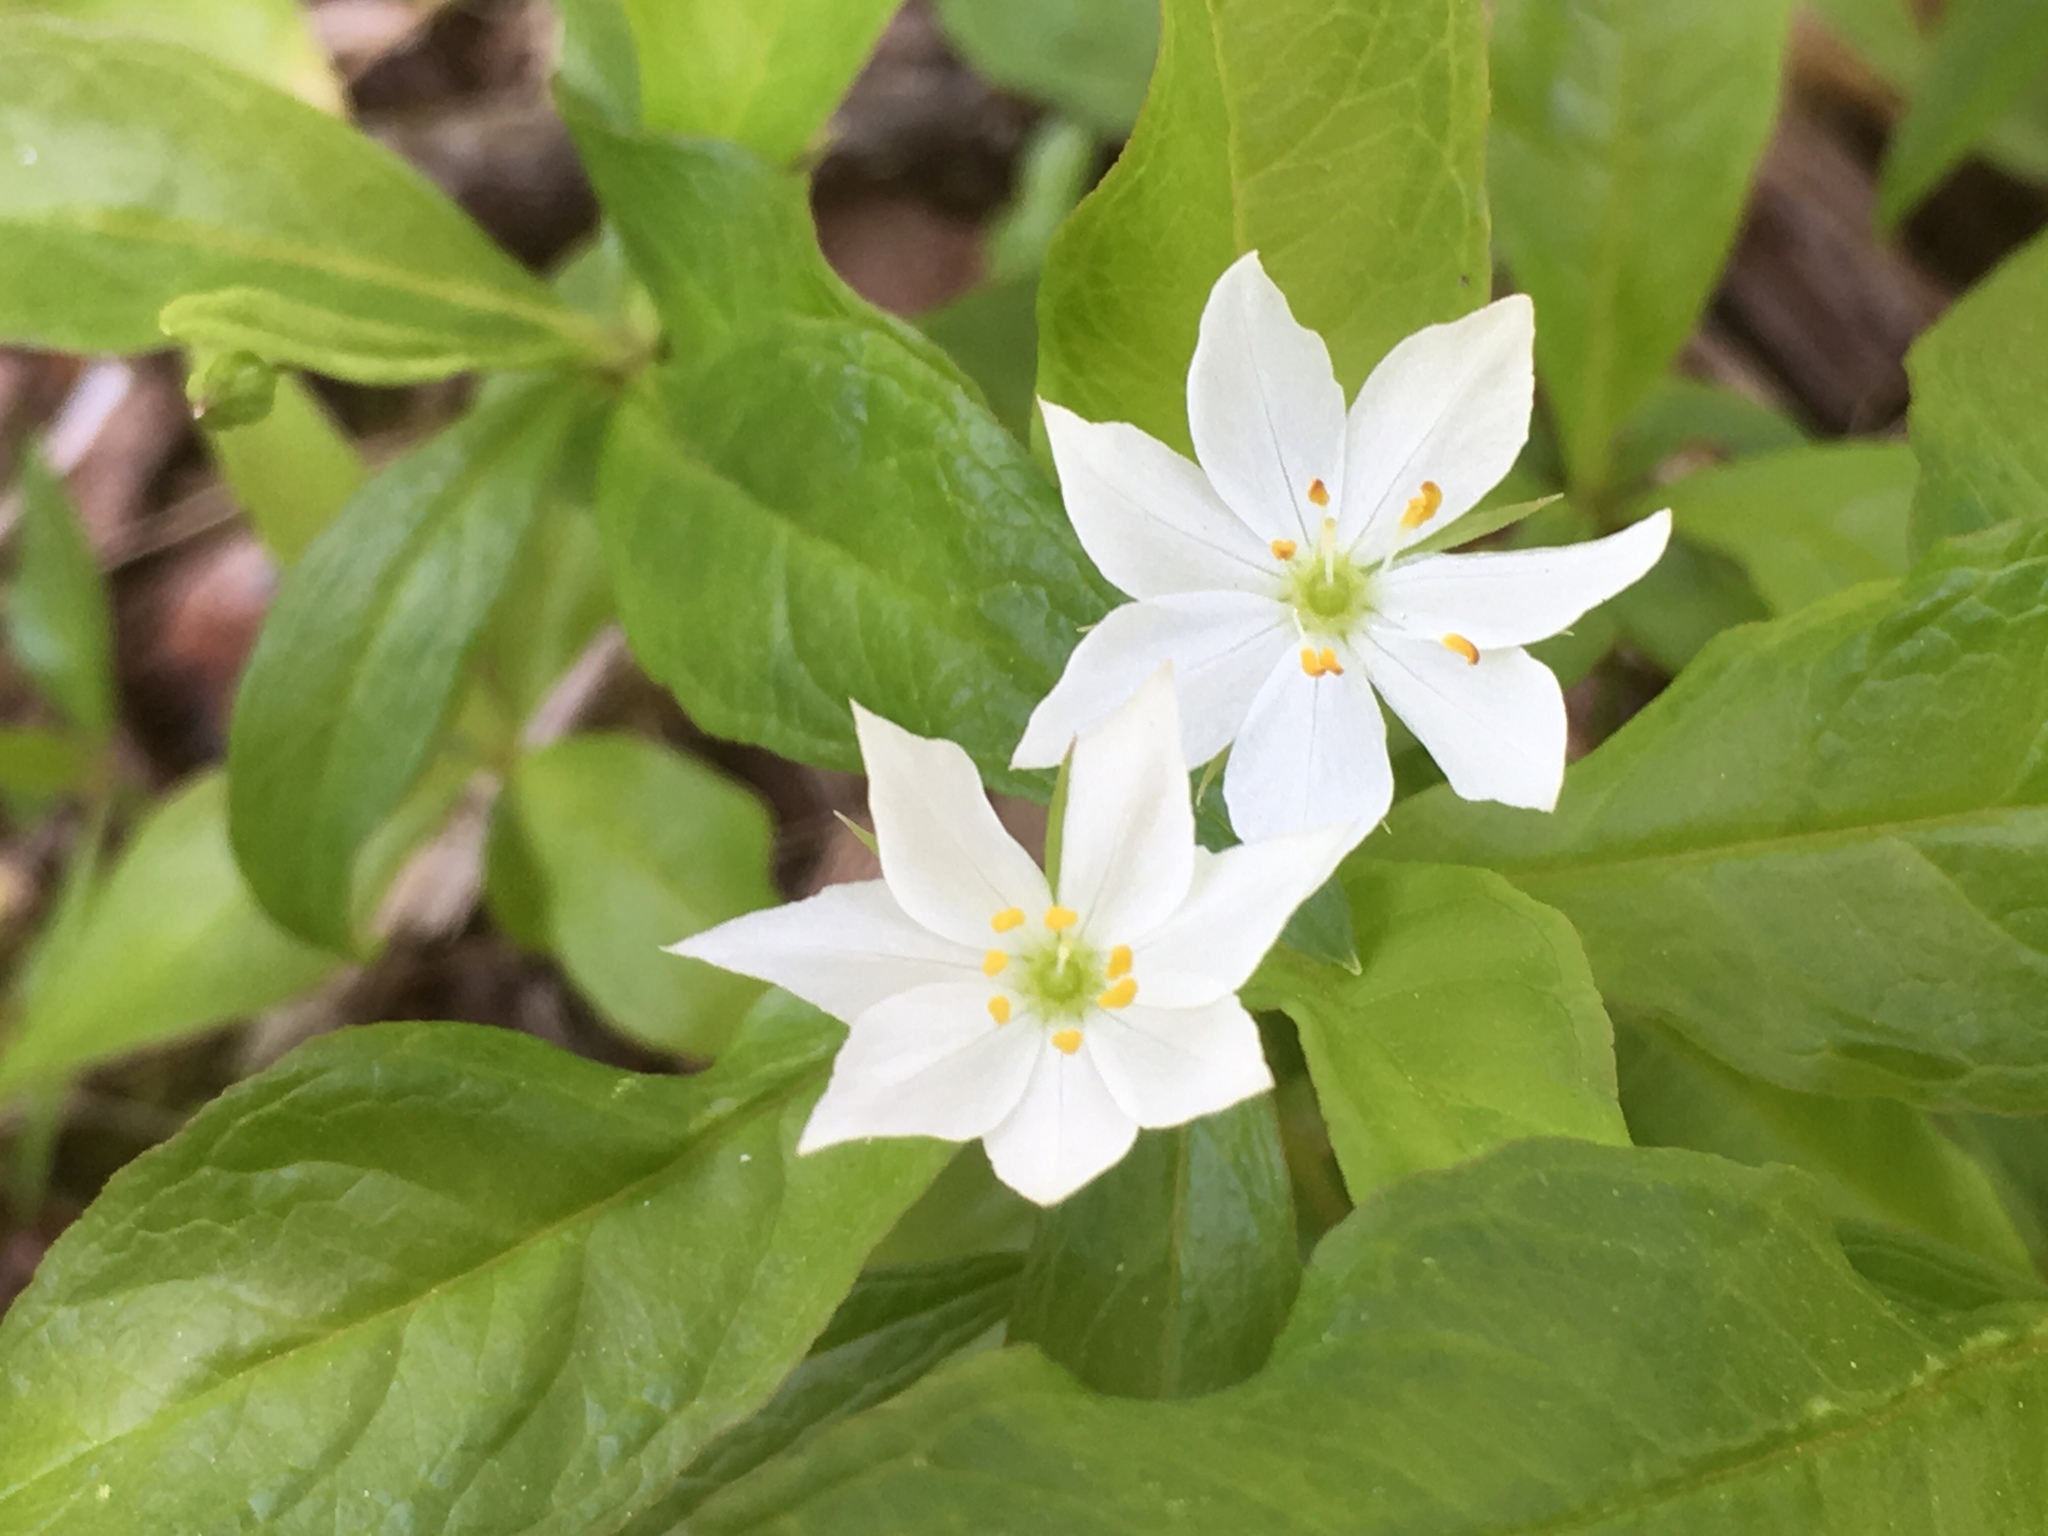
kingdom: Plantae
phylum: Tracheophyta
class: Magnoliopsida
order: Ericales
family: Primulaceae
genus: Lysimachia
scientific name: Lysimachia borealis
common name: American starflower
